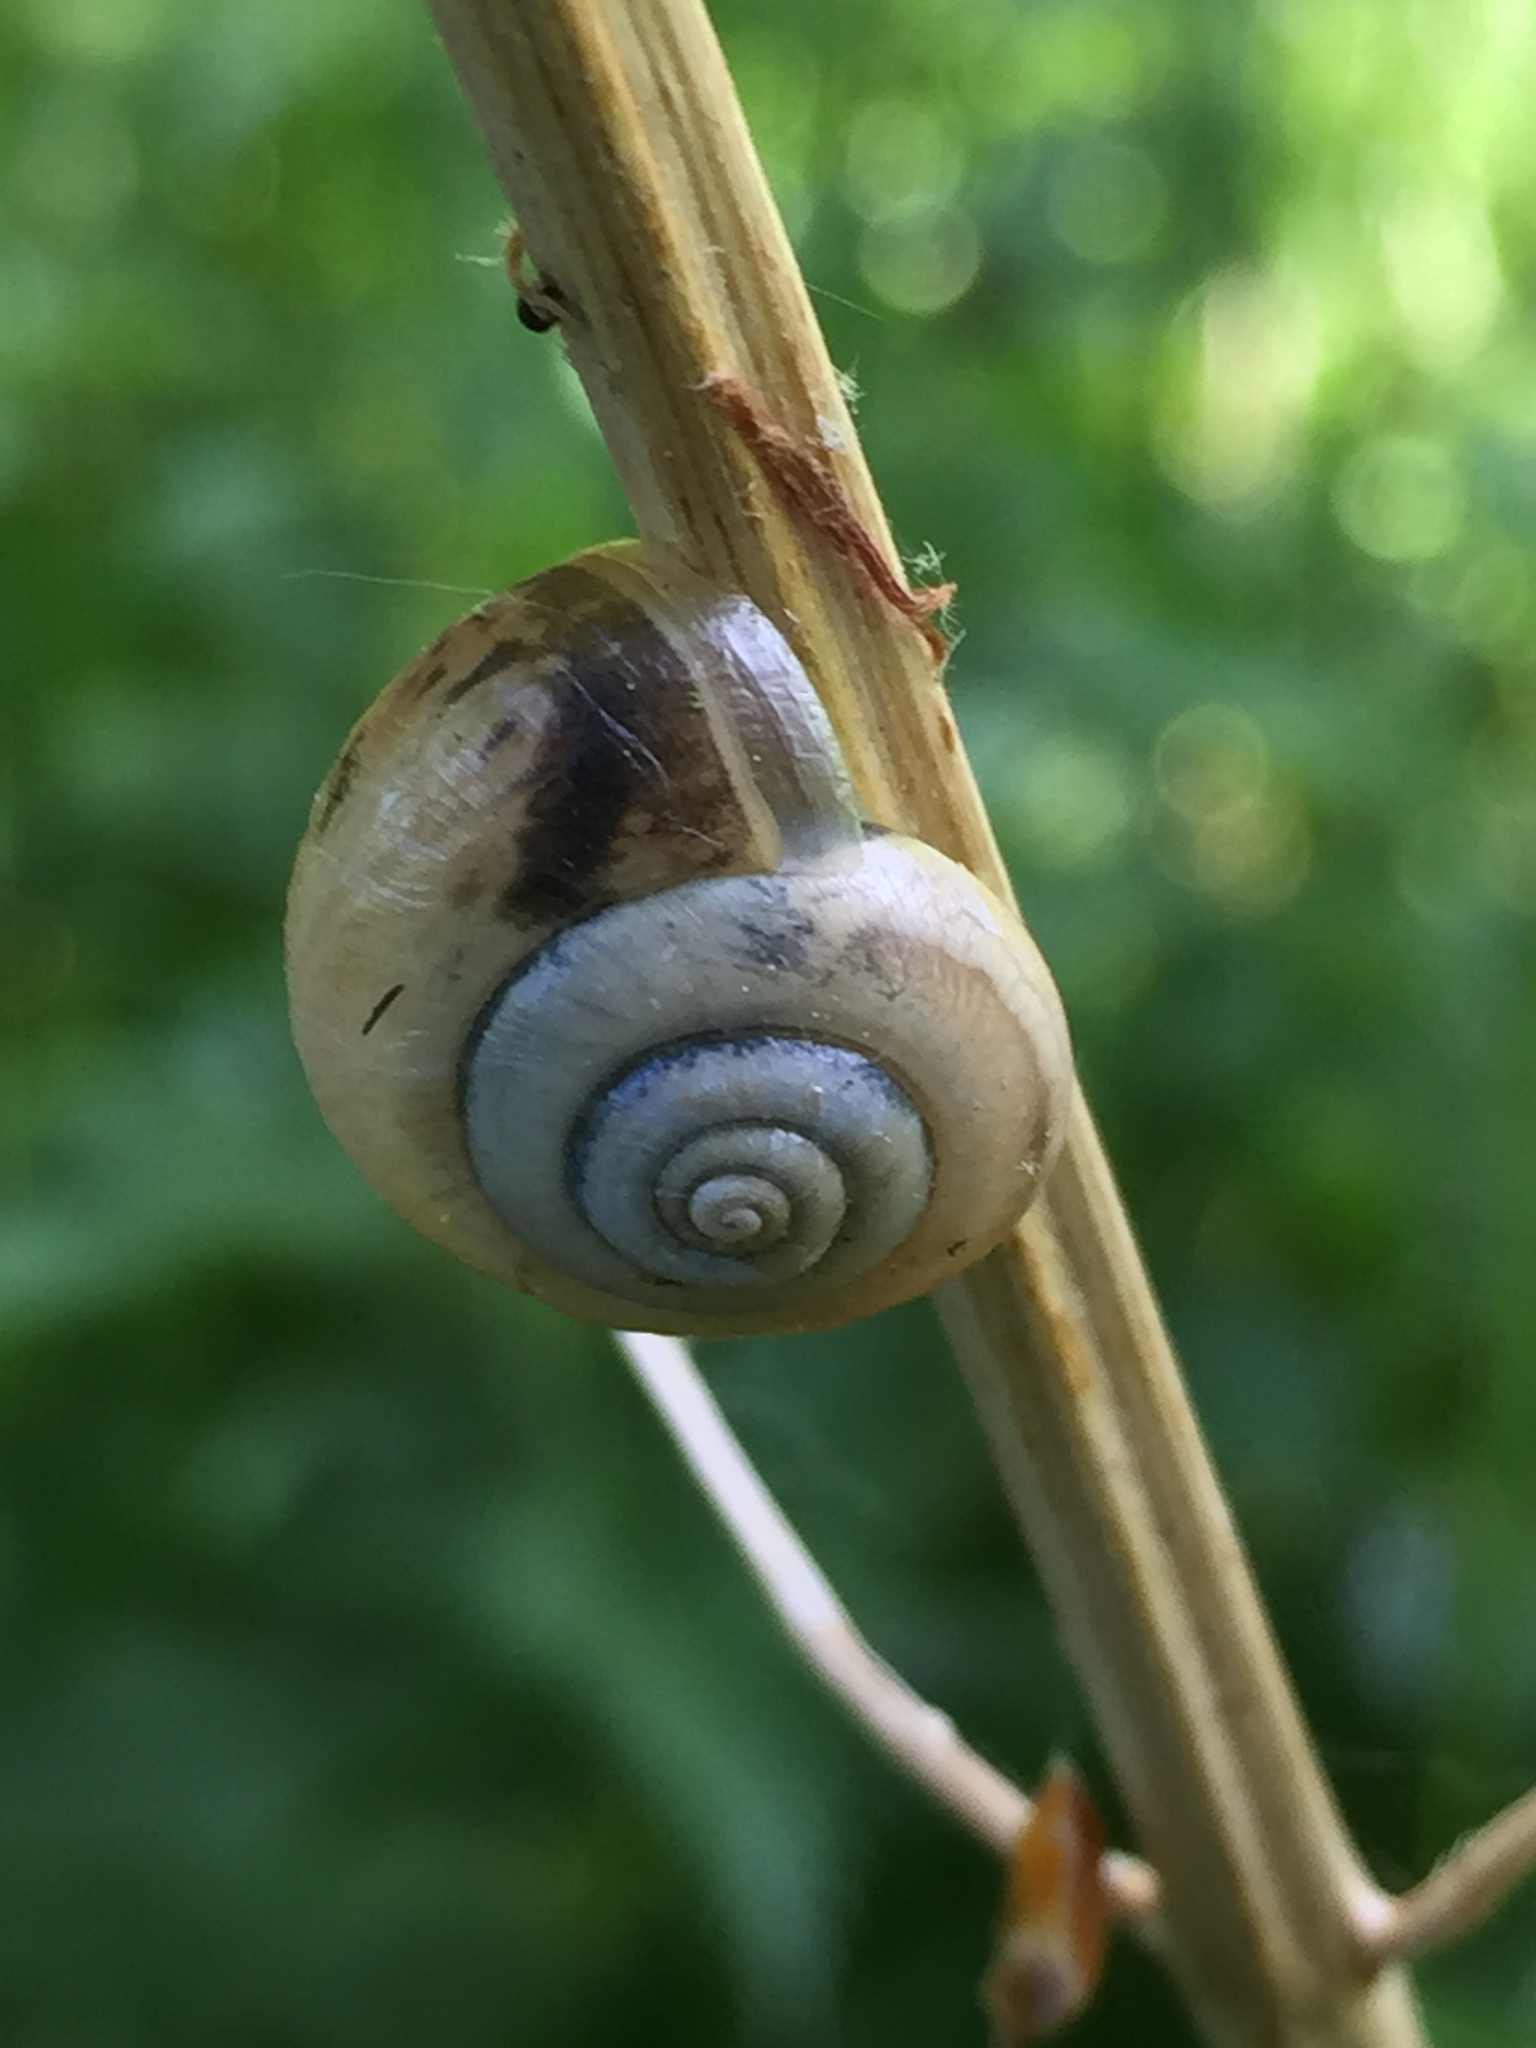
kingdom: Animalia
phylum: Mollusca
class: Gastropoda
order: Stylommatophora
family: Hygromiidae
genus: Monacha
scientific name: Monacha cantiana
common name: Kentish snail
